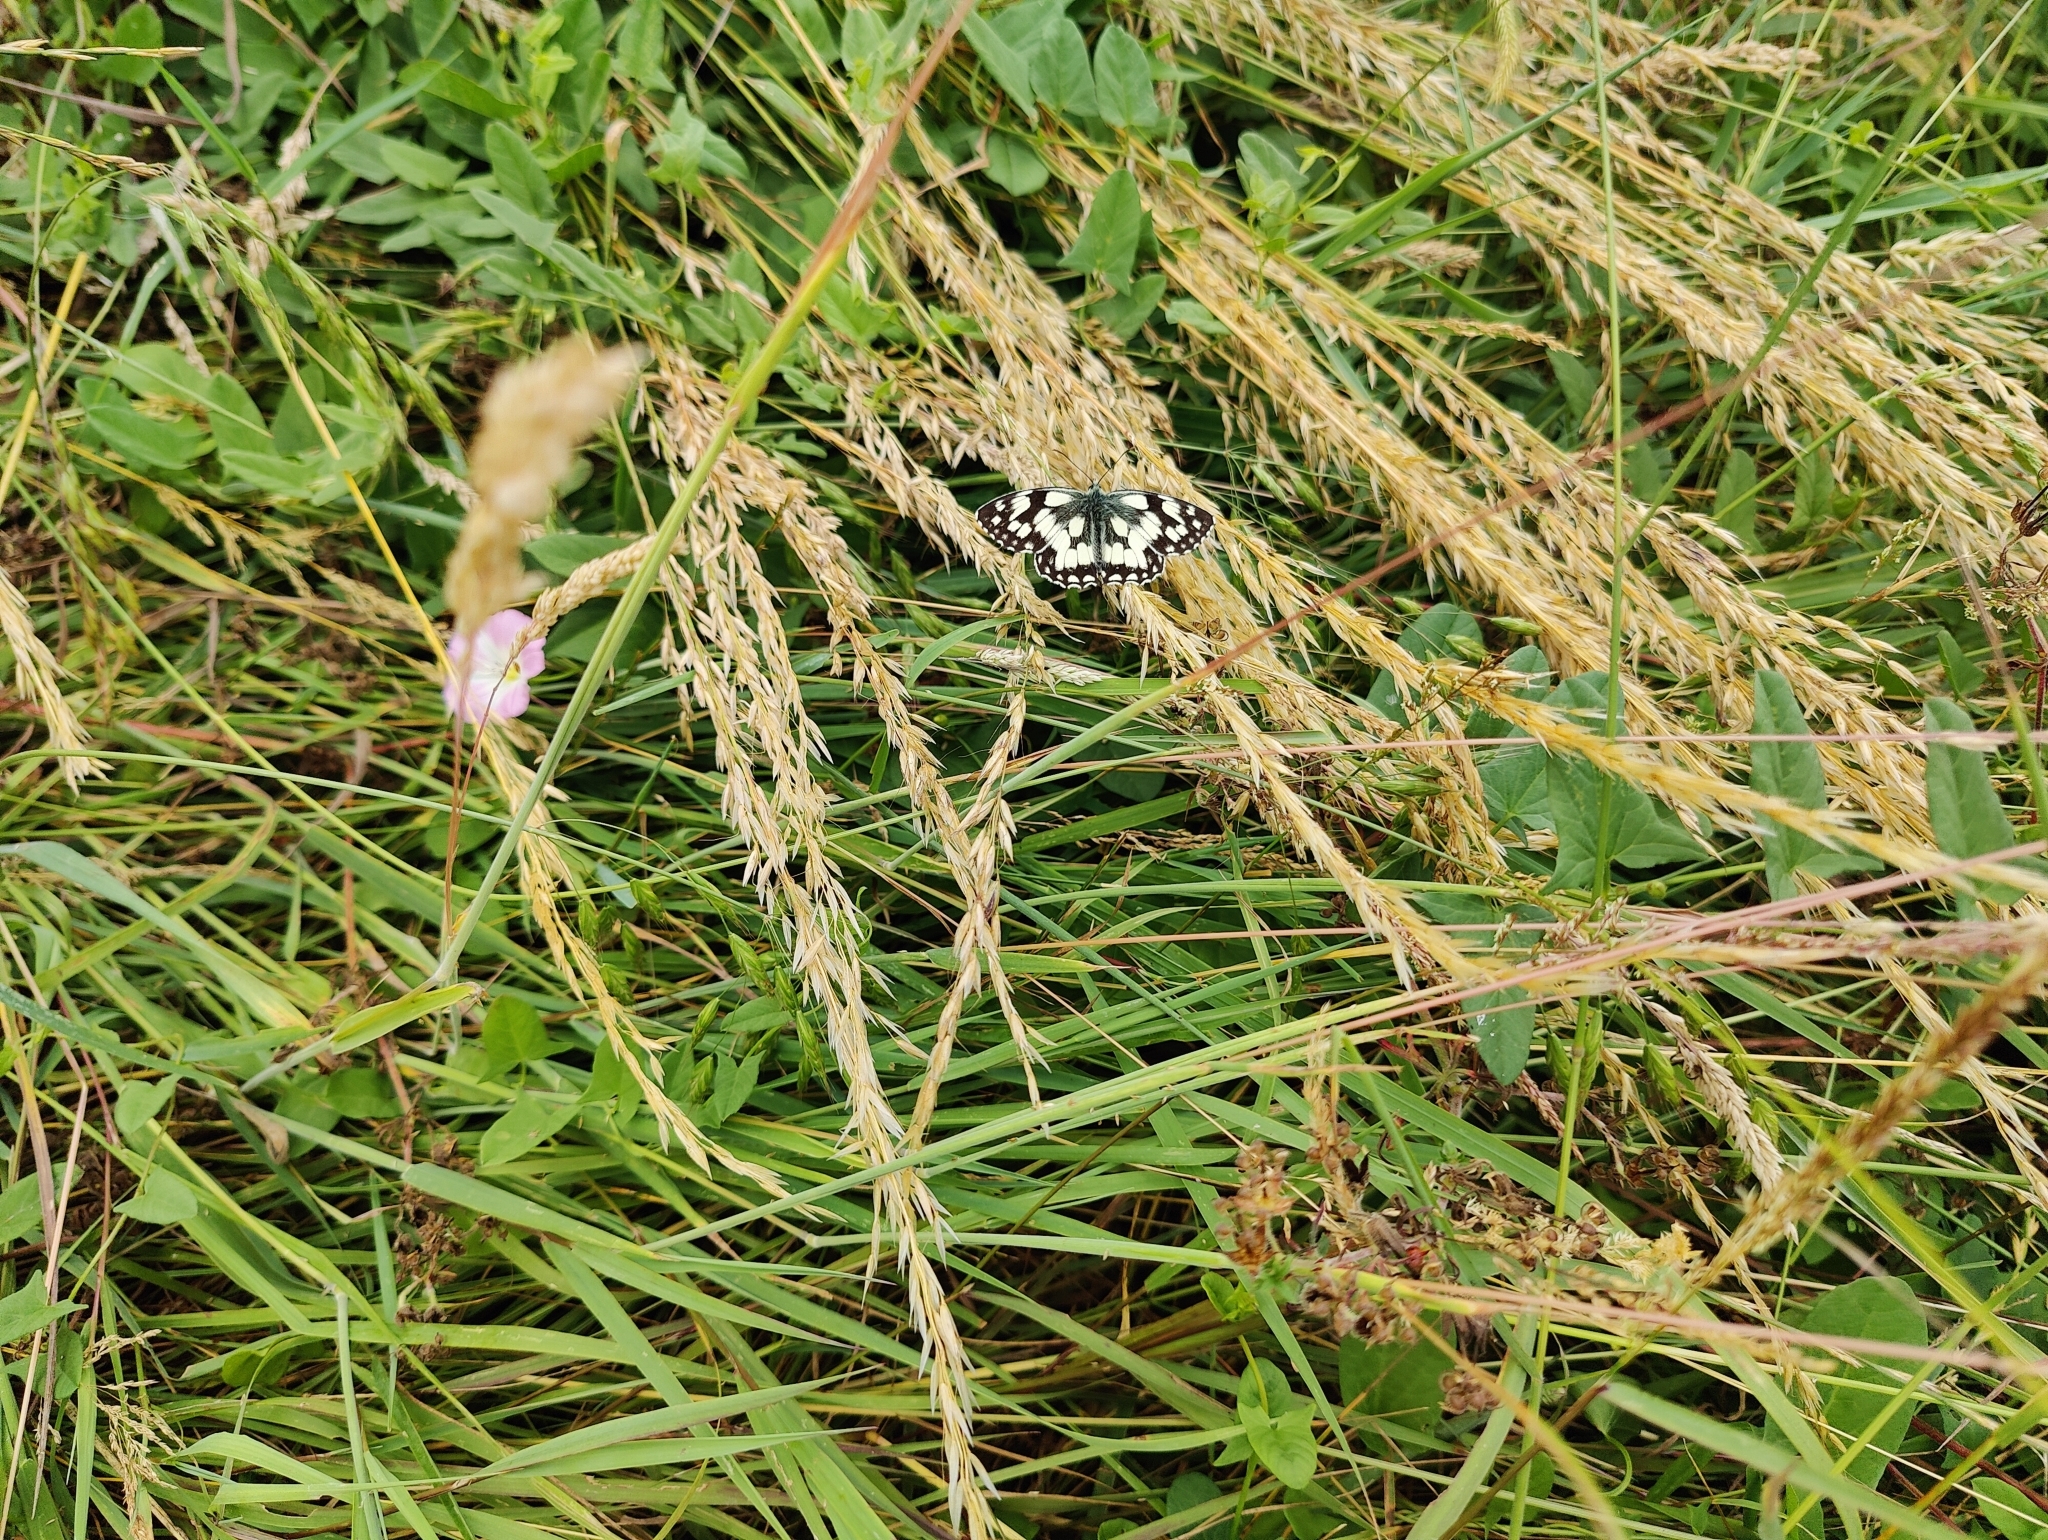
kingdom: Animalia
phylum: Arthropoda
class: Insecta
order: Lepidoptera
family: Nymphalidae
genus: Melanargia
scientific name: Melanargia galathea
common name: Marbled white
